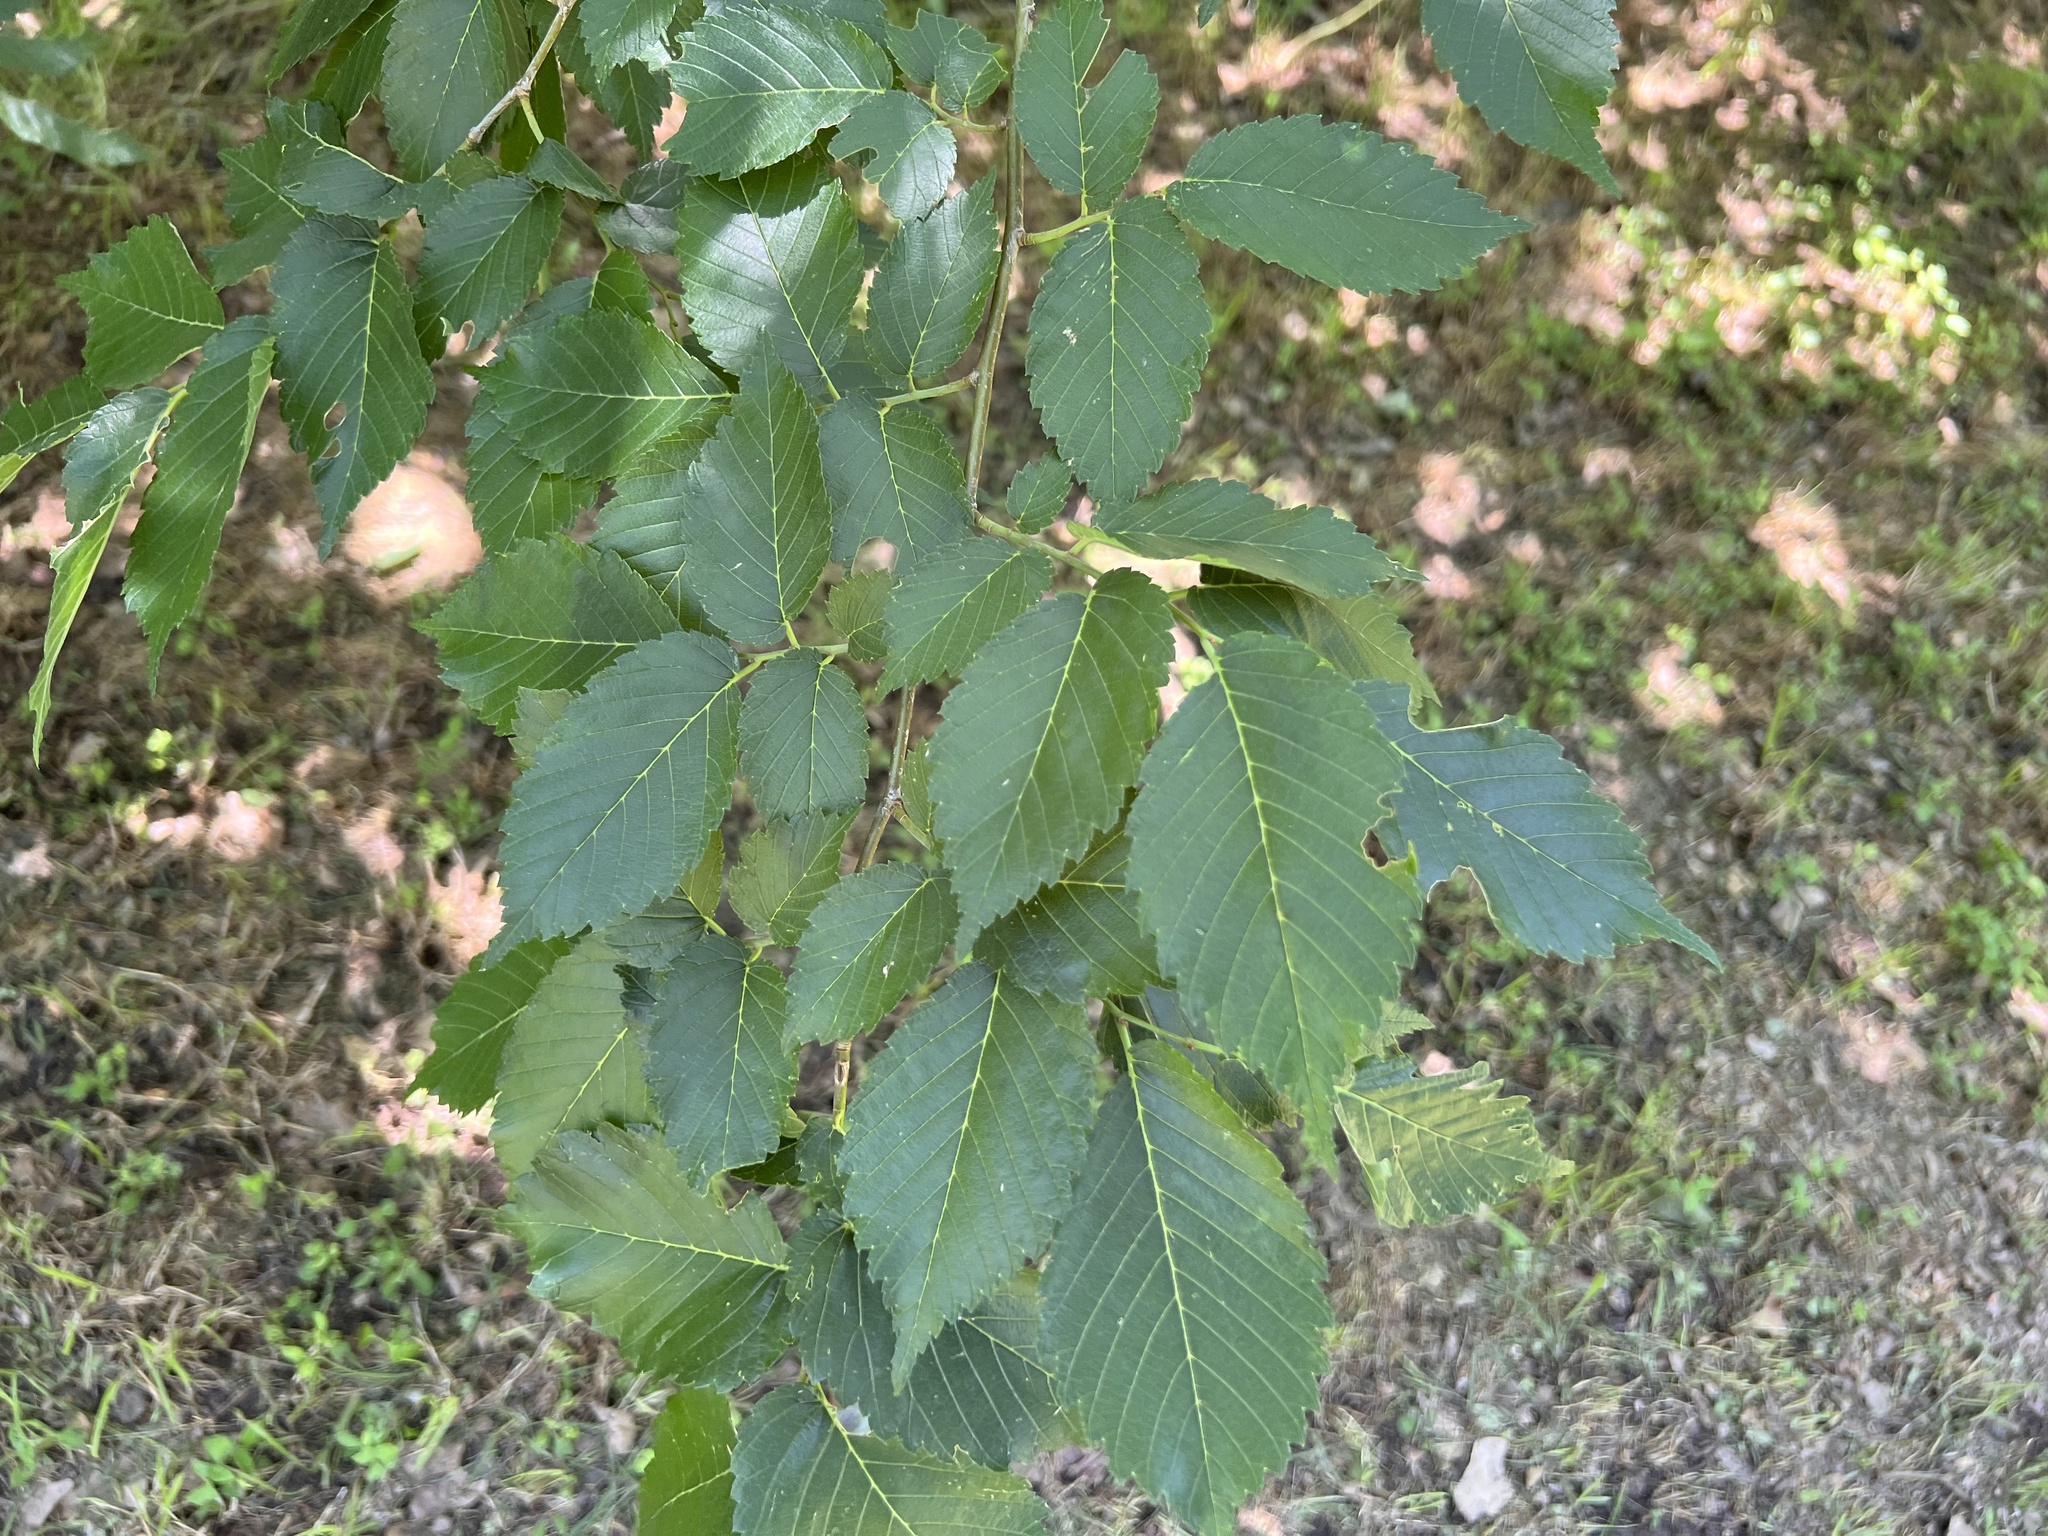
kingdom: Plantae
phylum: Tracheophyta
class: Magnoliopsida
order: Rosales
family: Ulmaceae
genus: Ulmus
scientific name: Ulmus americana
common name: American elm
